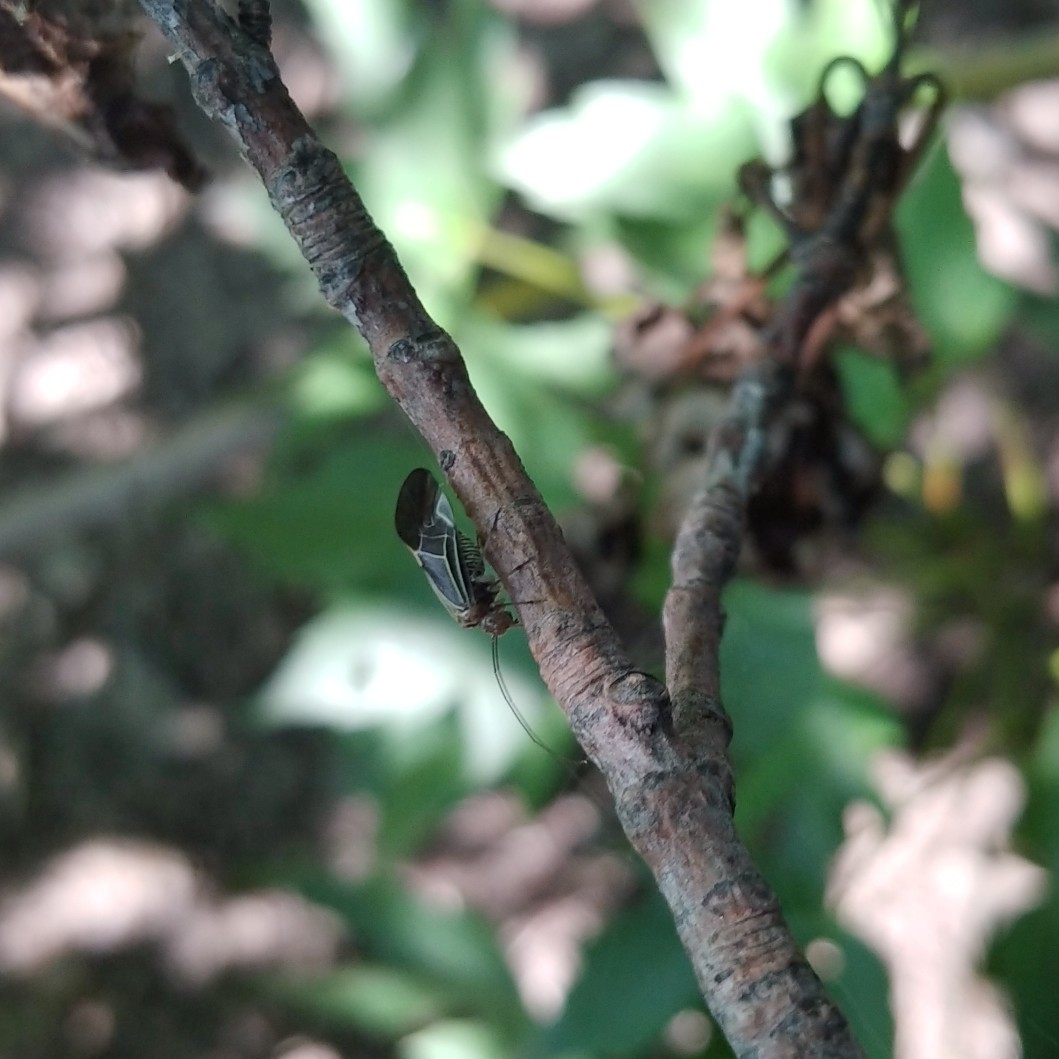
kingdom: Animalia
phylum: Arthropoda
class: Insecta
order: Psocodea
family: Psocidae
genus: Cerastipsocus
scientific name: Cerastipsocus venosus
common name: Tree cattle
